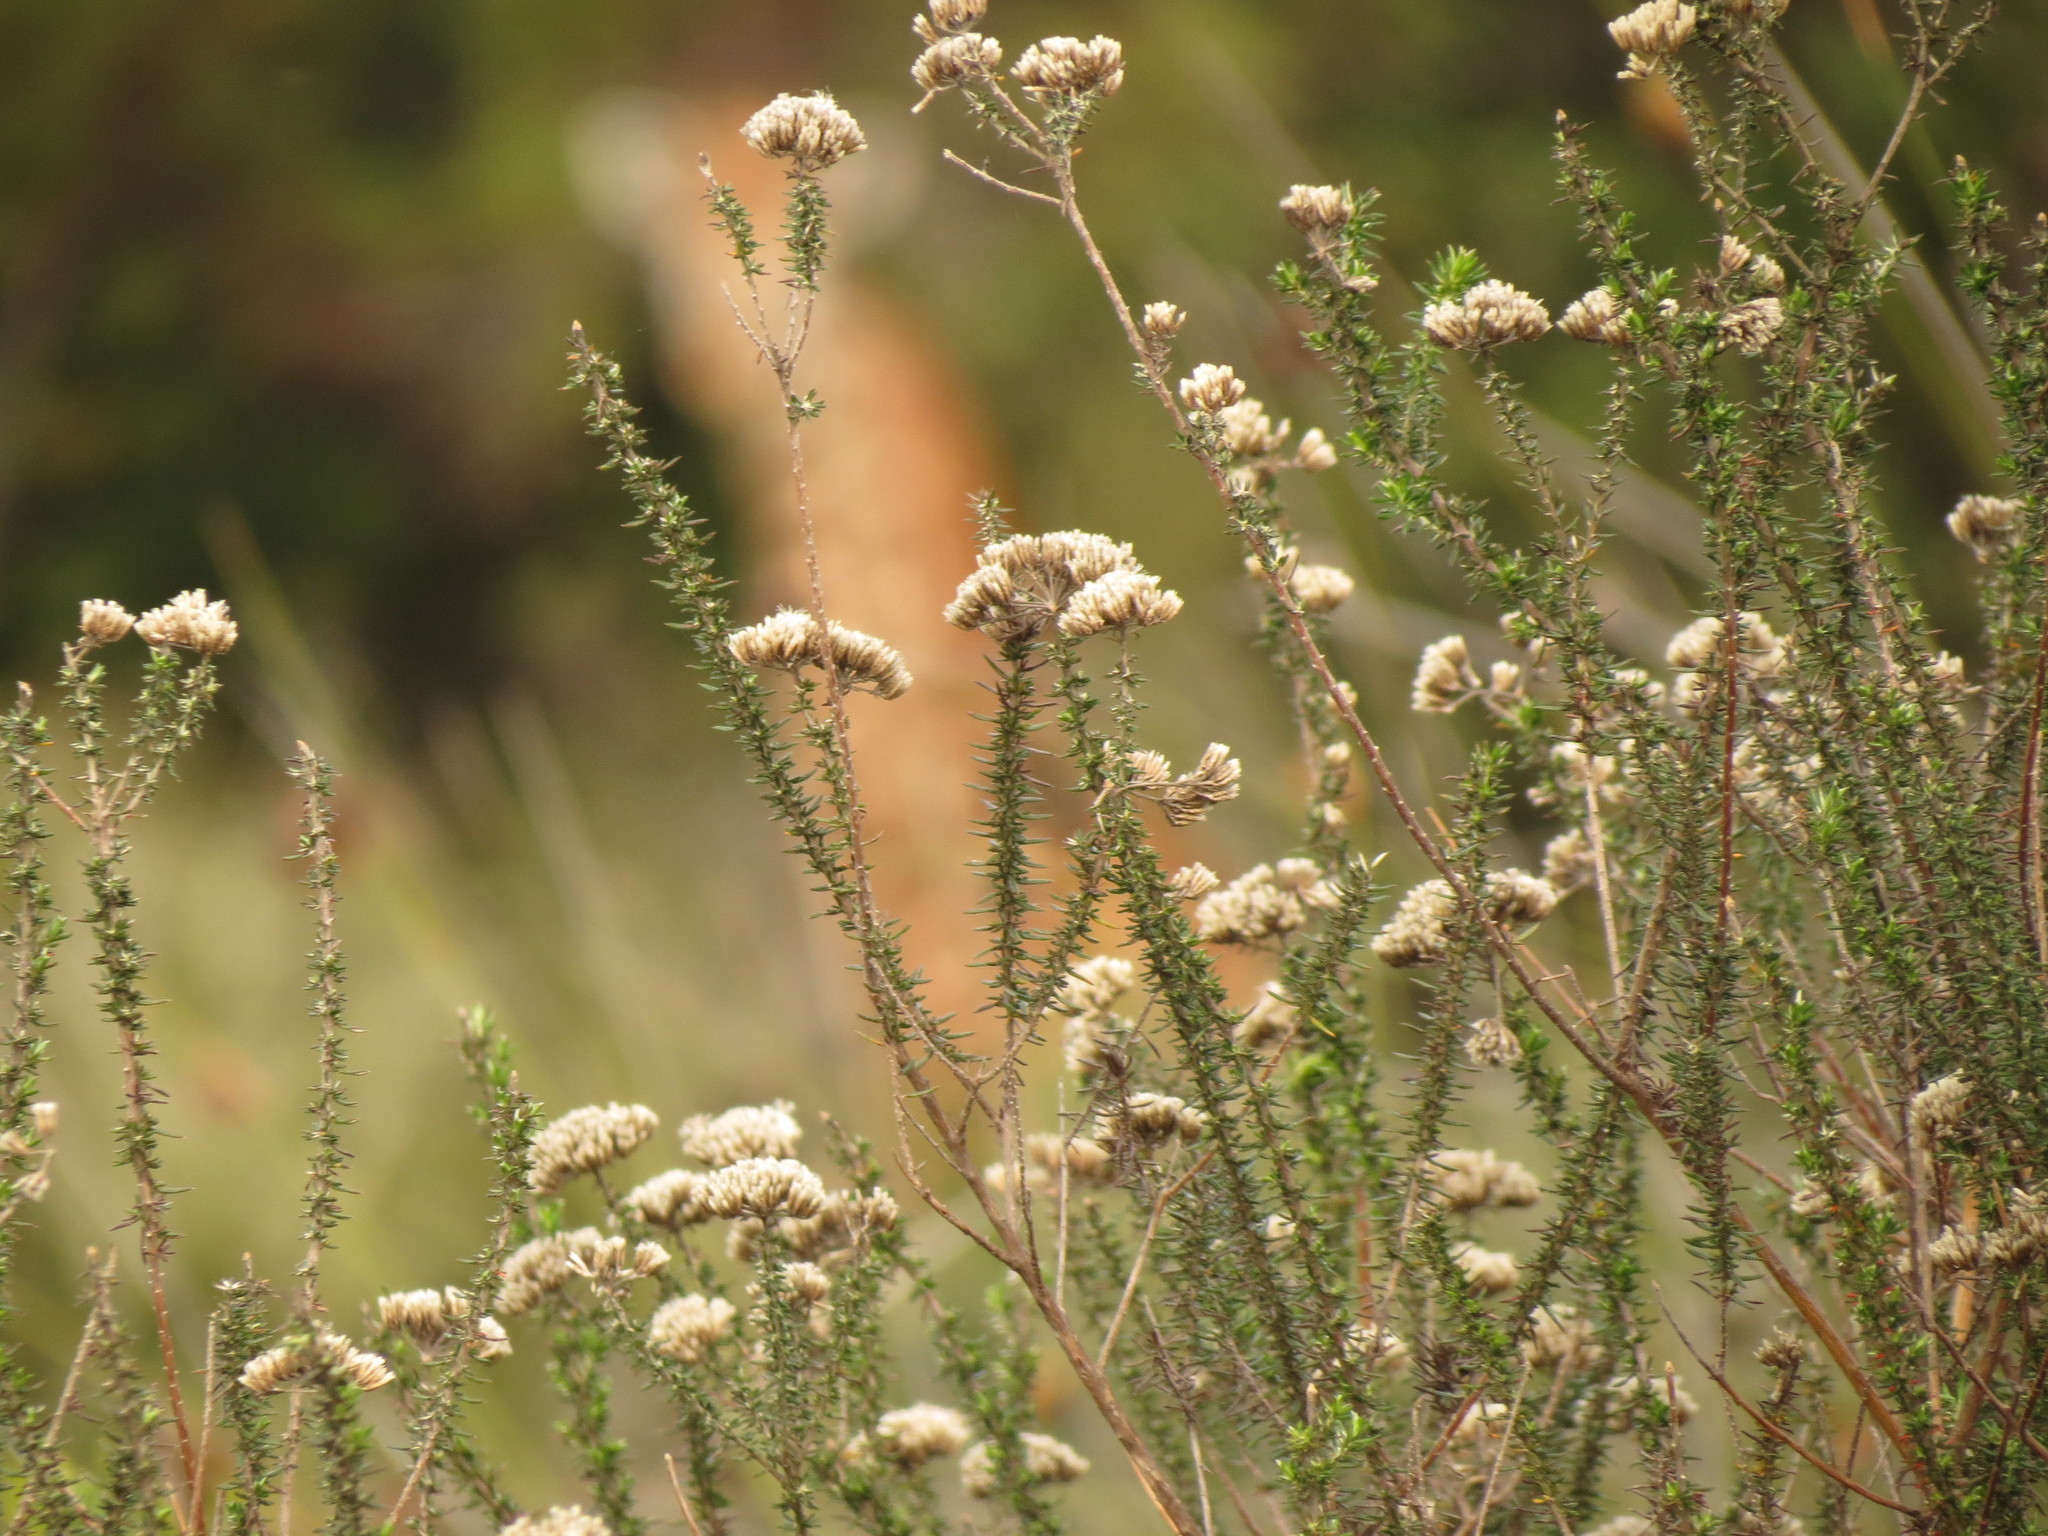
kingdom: Plantae
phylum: Tracheophyta
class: Magnoliopsida
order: Asterales
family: Asteraceae
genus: Metalasia
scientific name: Metalasia acuta
